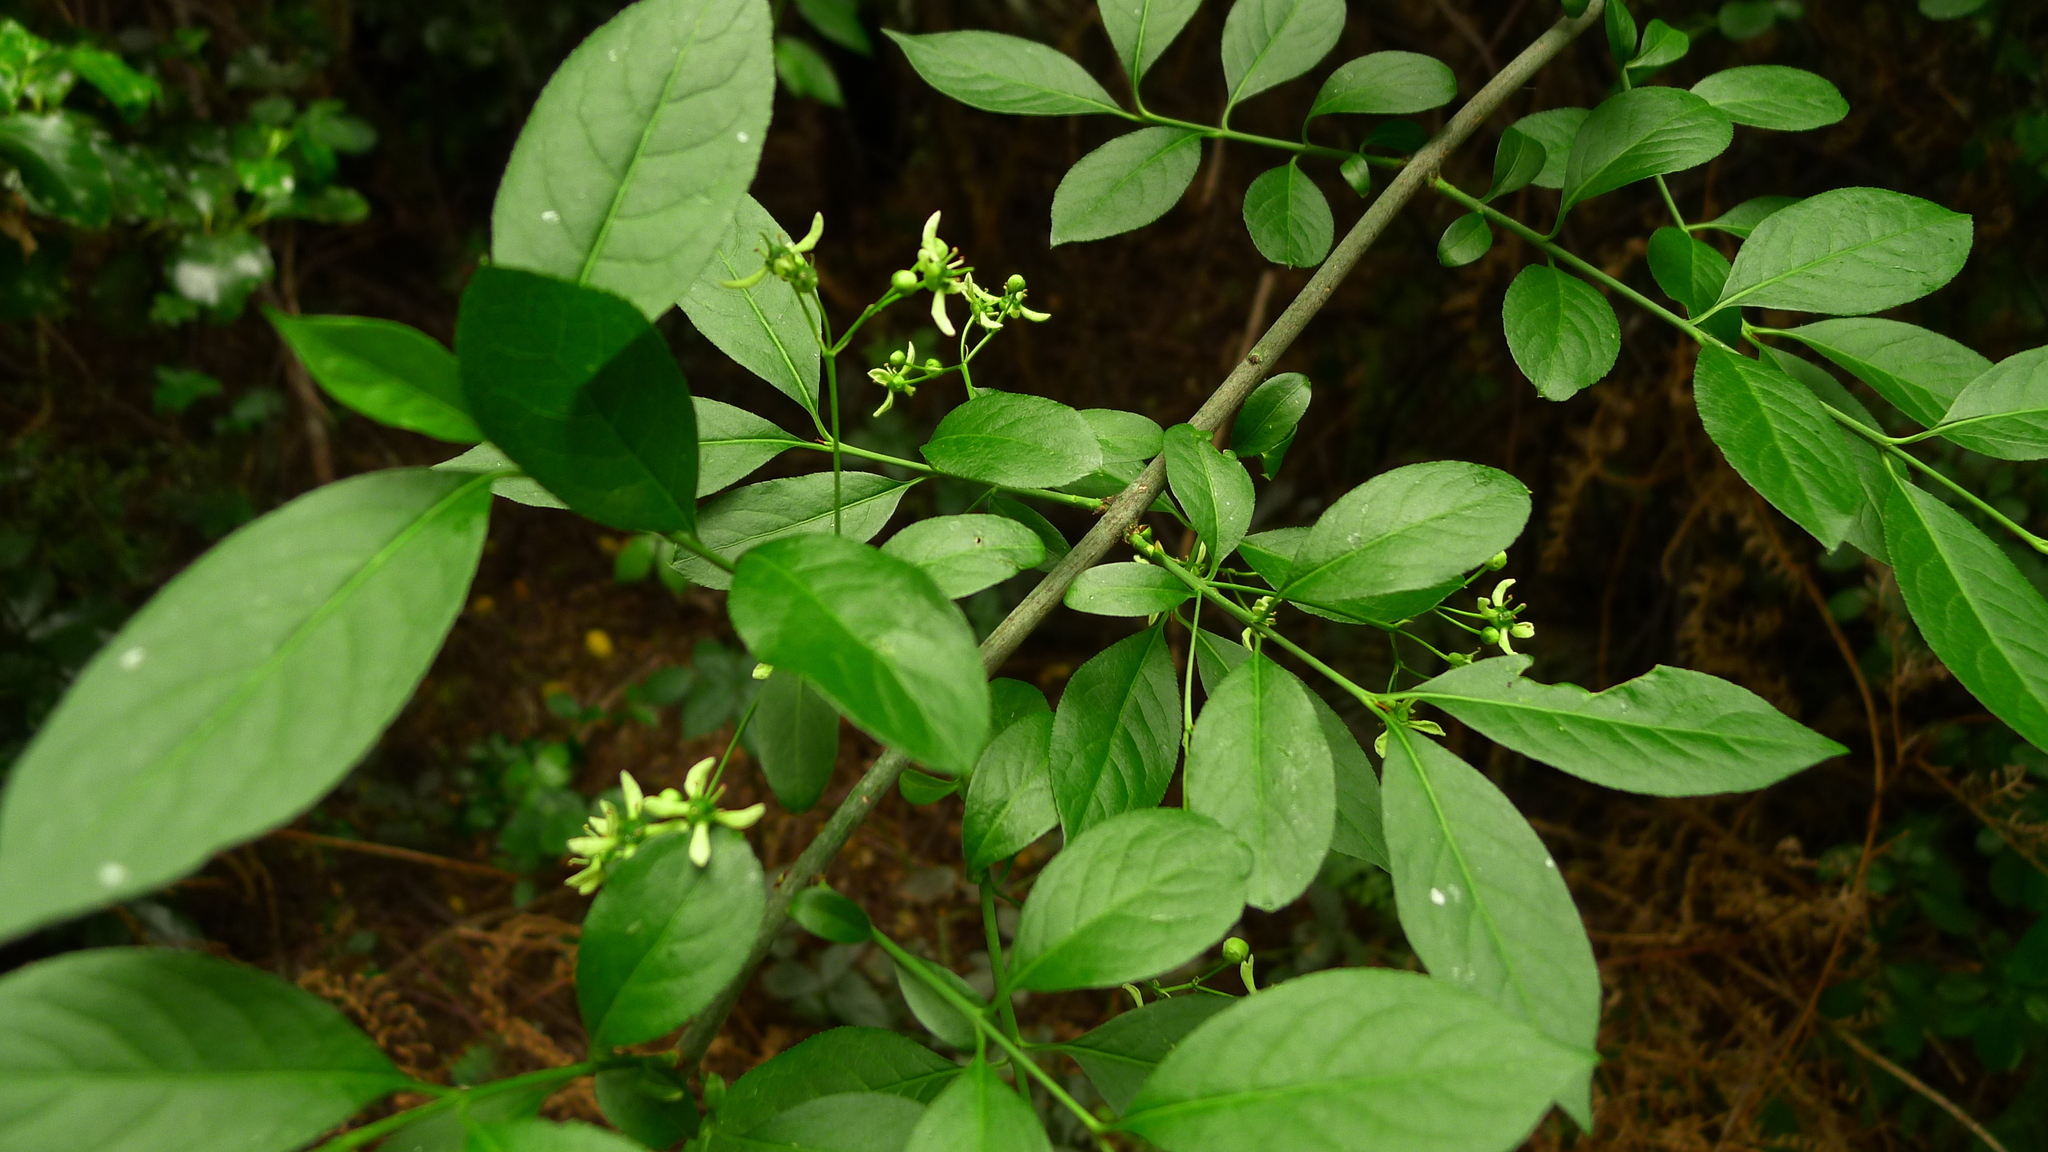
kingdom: Plantae
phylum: Tracheophyta
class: Magnoliopsida
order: Celastrales
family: Celastraceae
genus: Euonymus
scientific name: Euonymus europaeus
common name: Spindle
